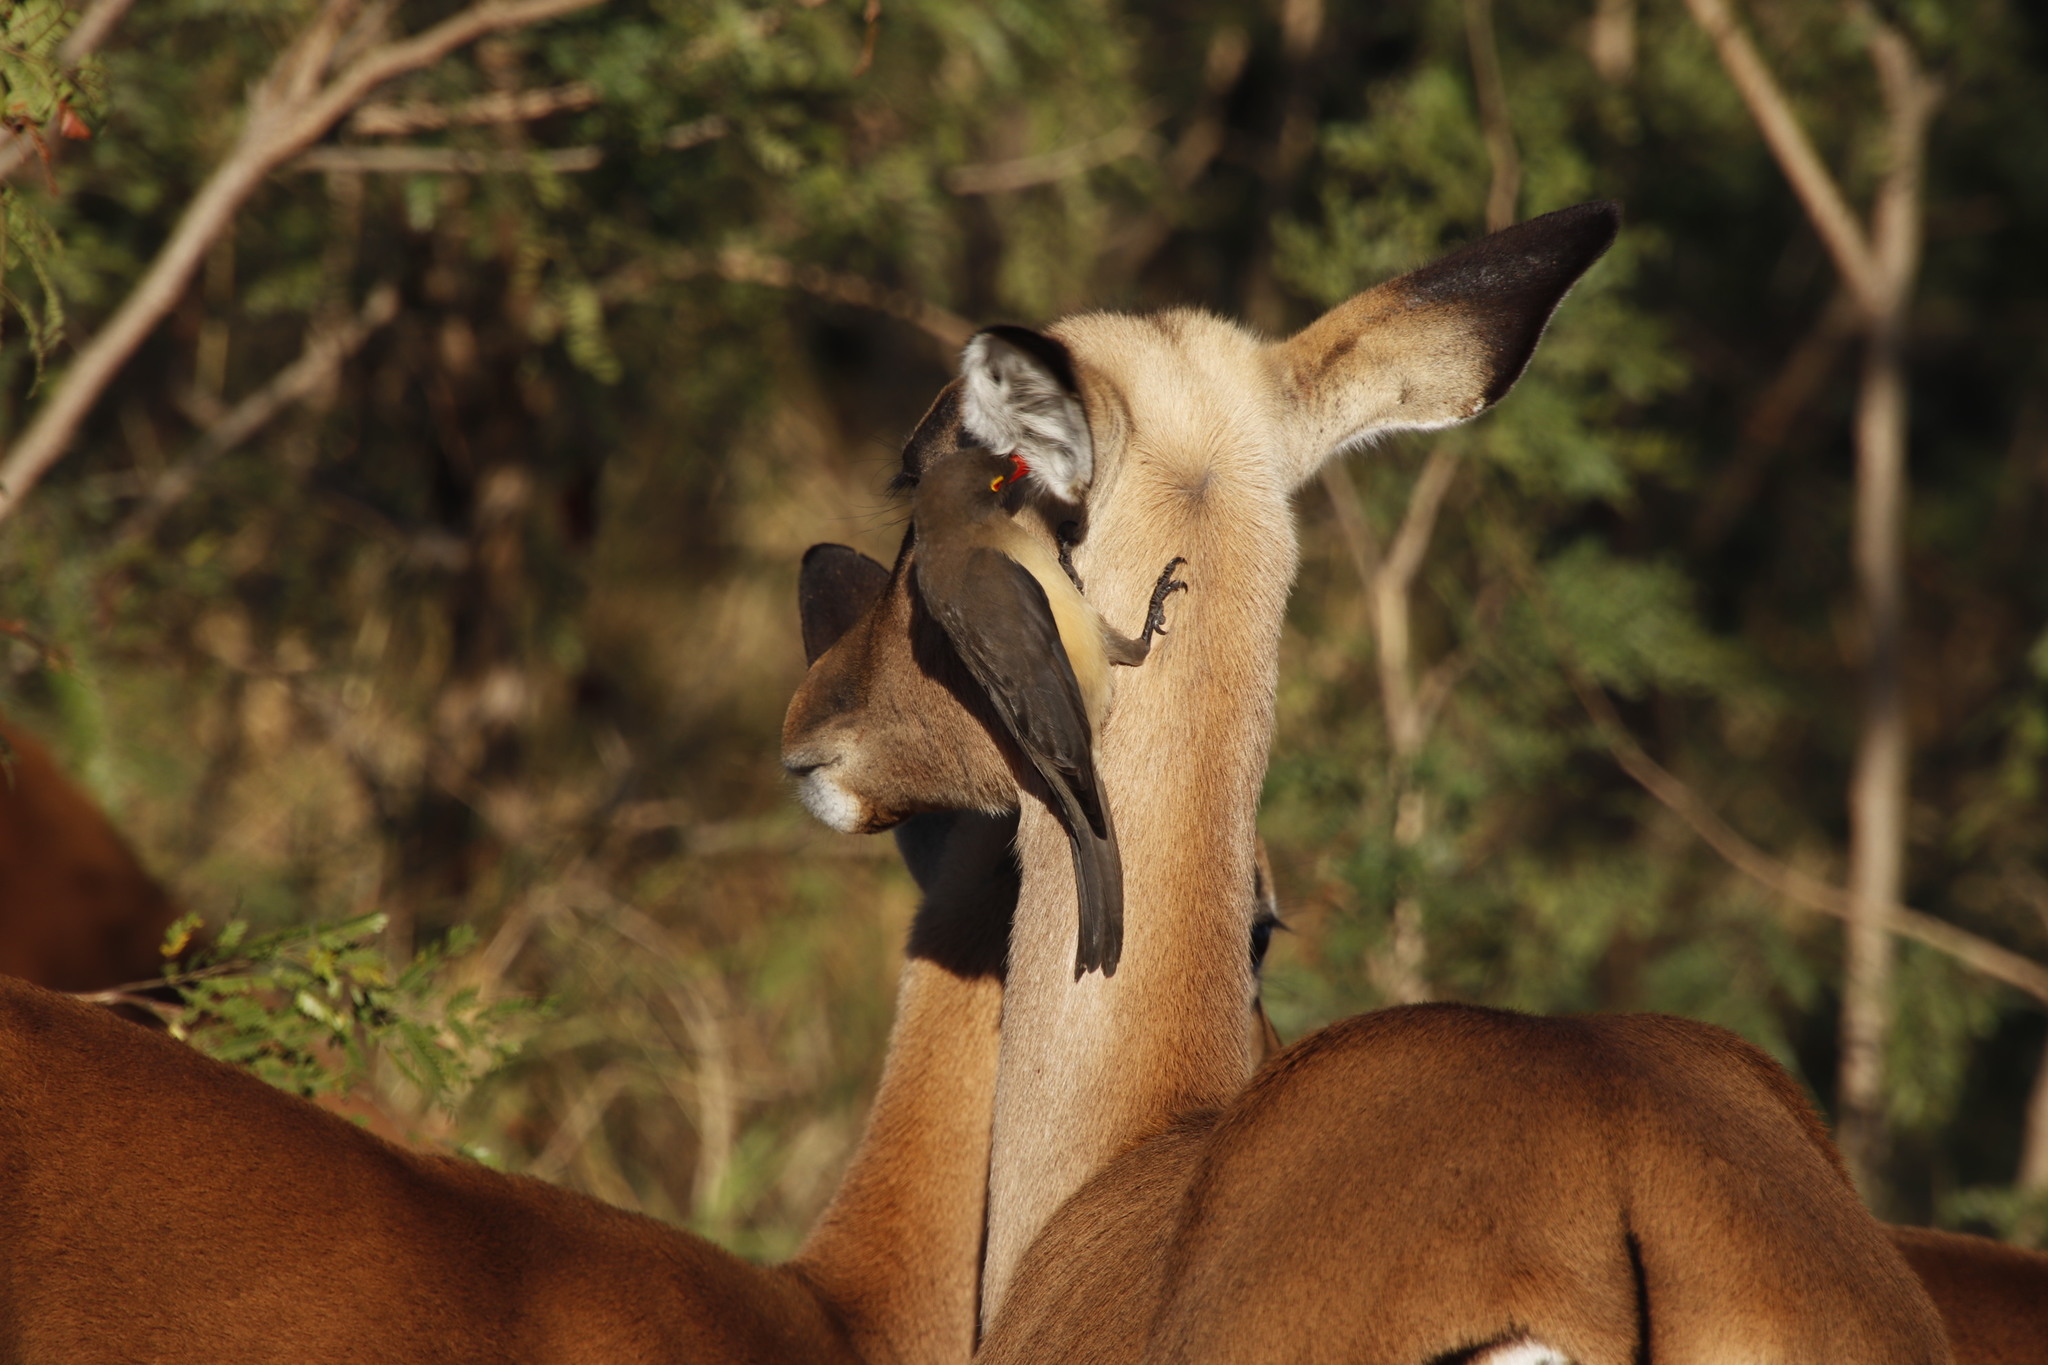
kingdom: Animalia
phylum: Chordata
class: Aves
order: Passeriformes
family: Buphagidae
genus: Buphagus
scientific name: Buphagus erythrorhynchus
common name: Red-billed oxpecker
